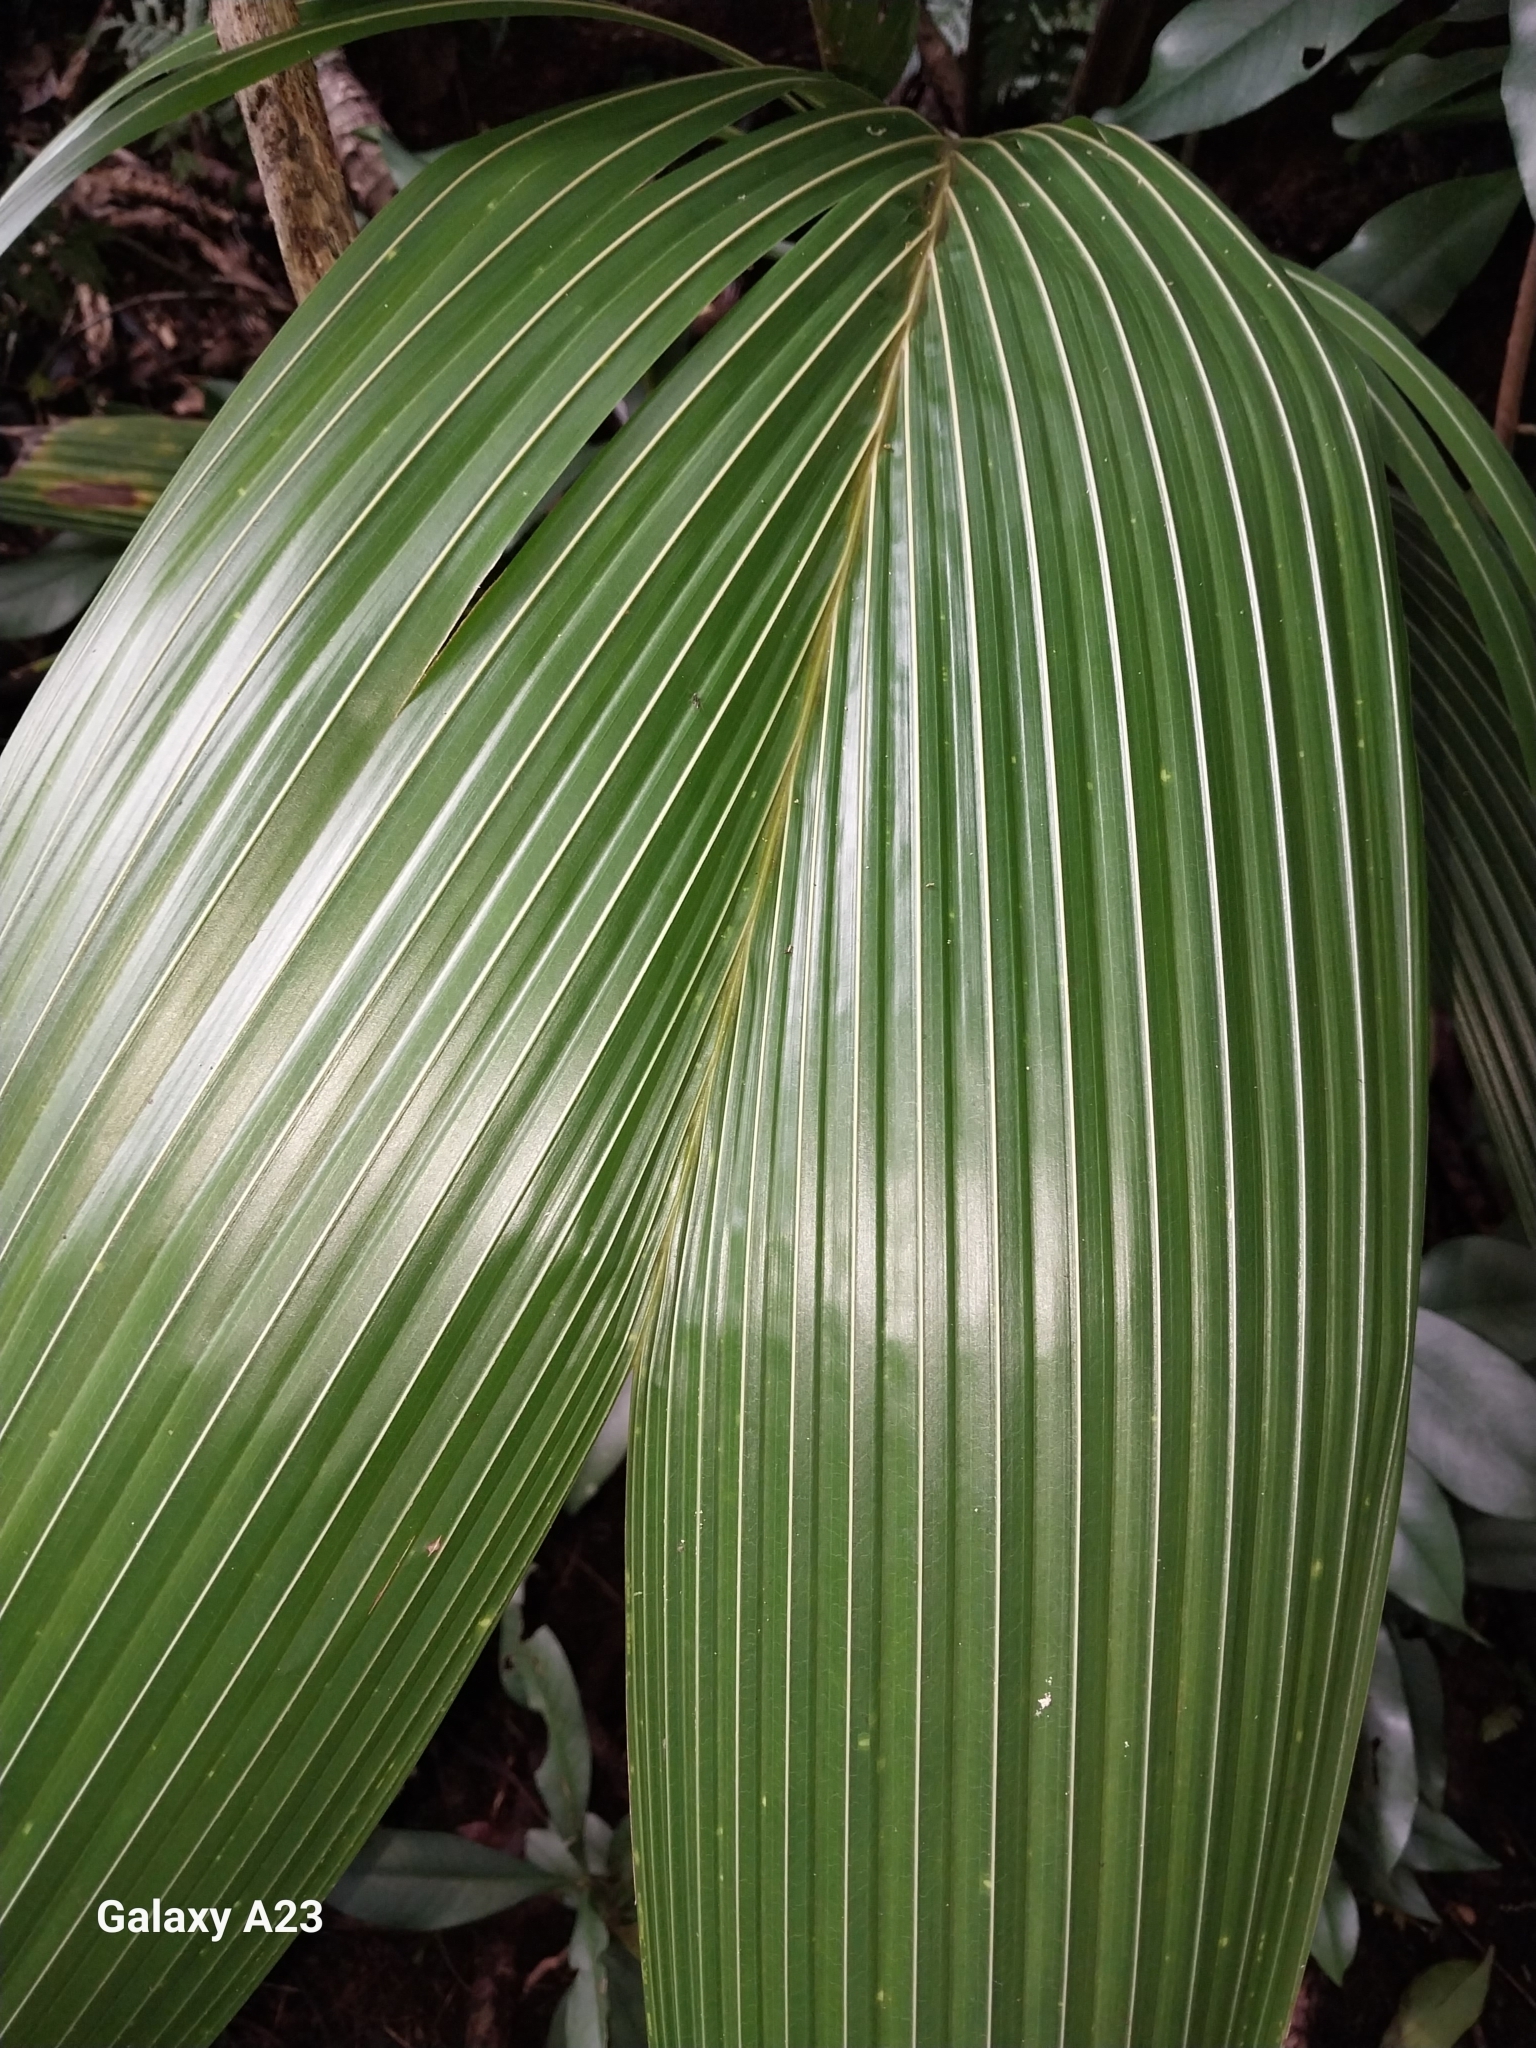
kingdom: Plantae
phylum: Tracheophyta
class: Liliopsida
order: Arecales
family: Arecaceae
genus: Cocos
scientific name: Cocos nucifera
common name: Coconut palm
